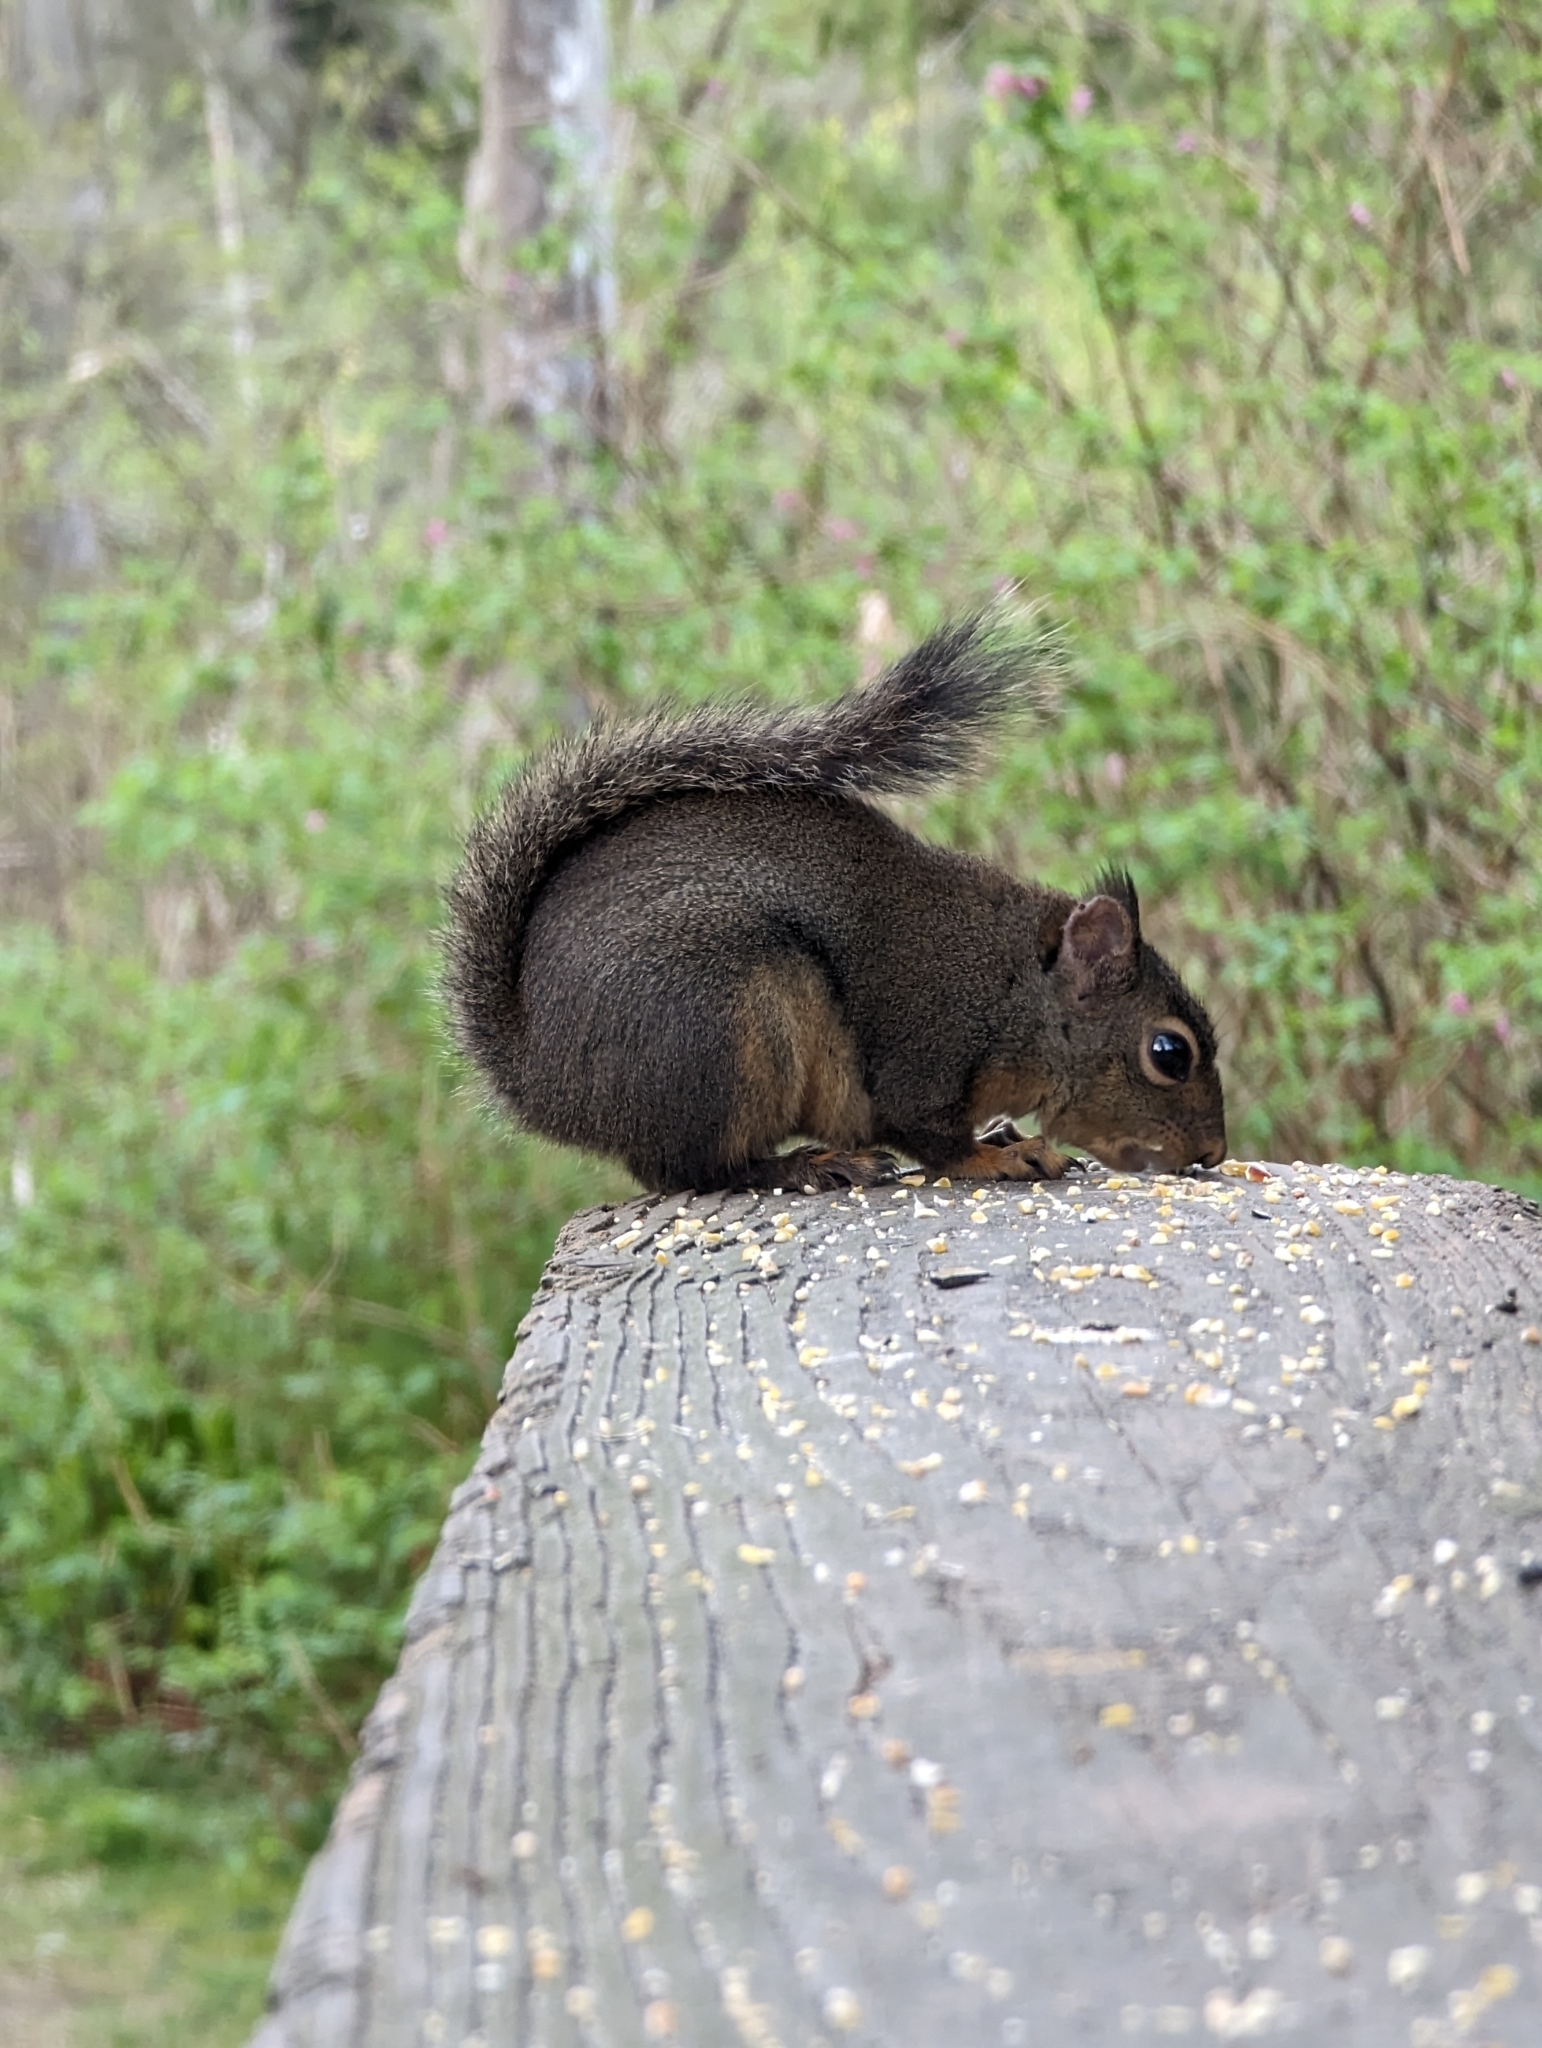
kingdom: Animalia
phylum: Chordata
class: Mammalia
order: Rodentia
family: Sciuridae
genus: Tamiasciurus
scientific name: Tamiasciurus douglasii
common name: Douglas's squirrel
